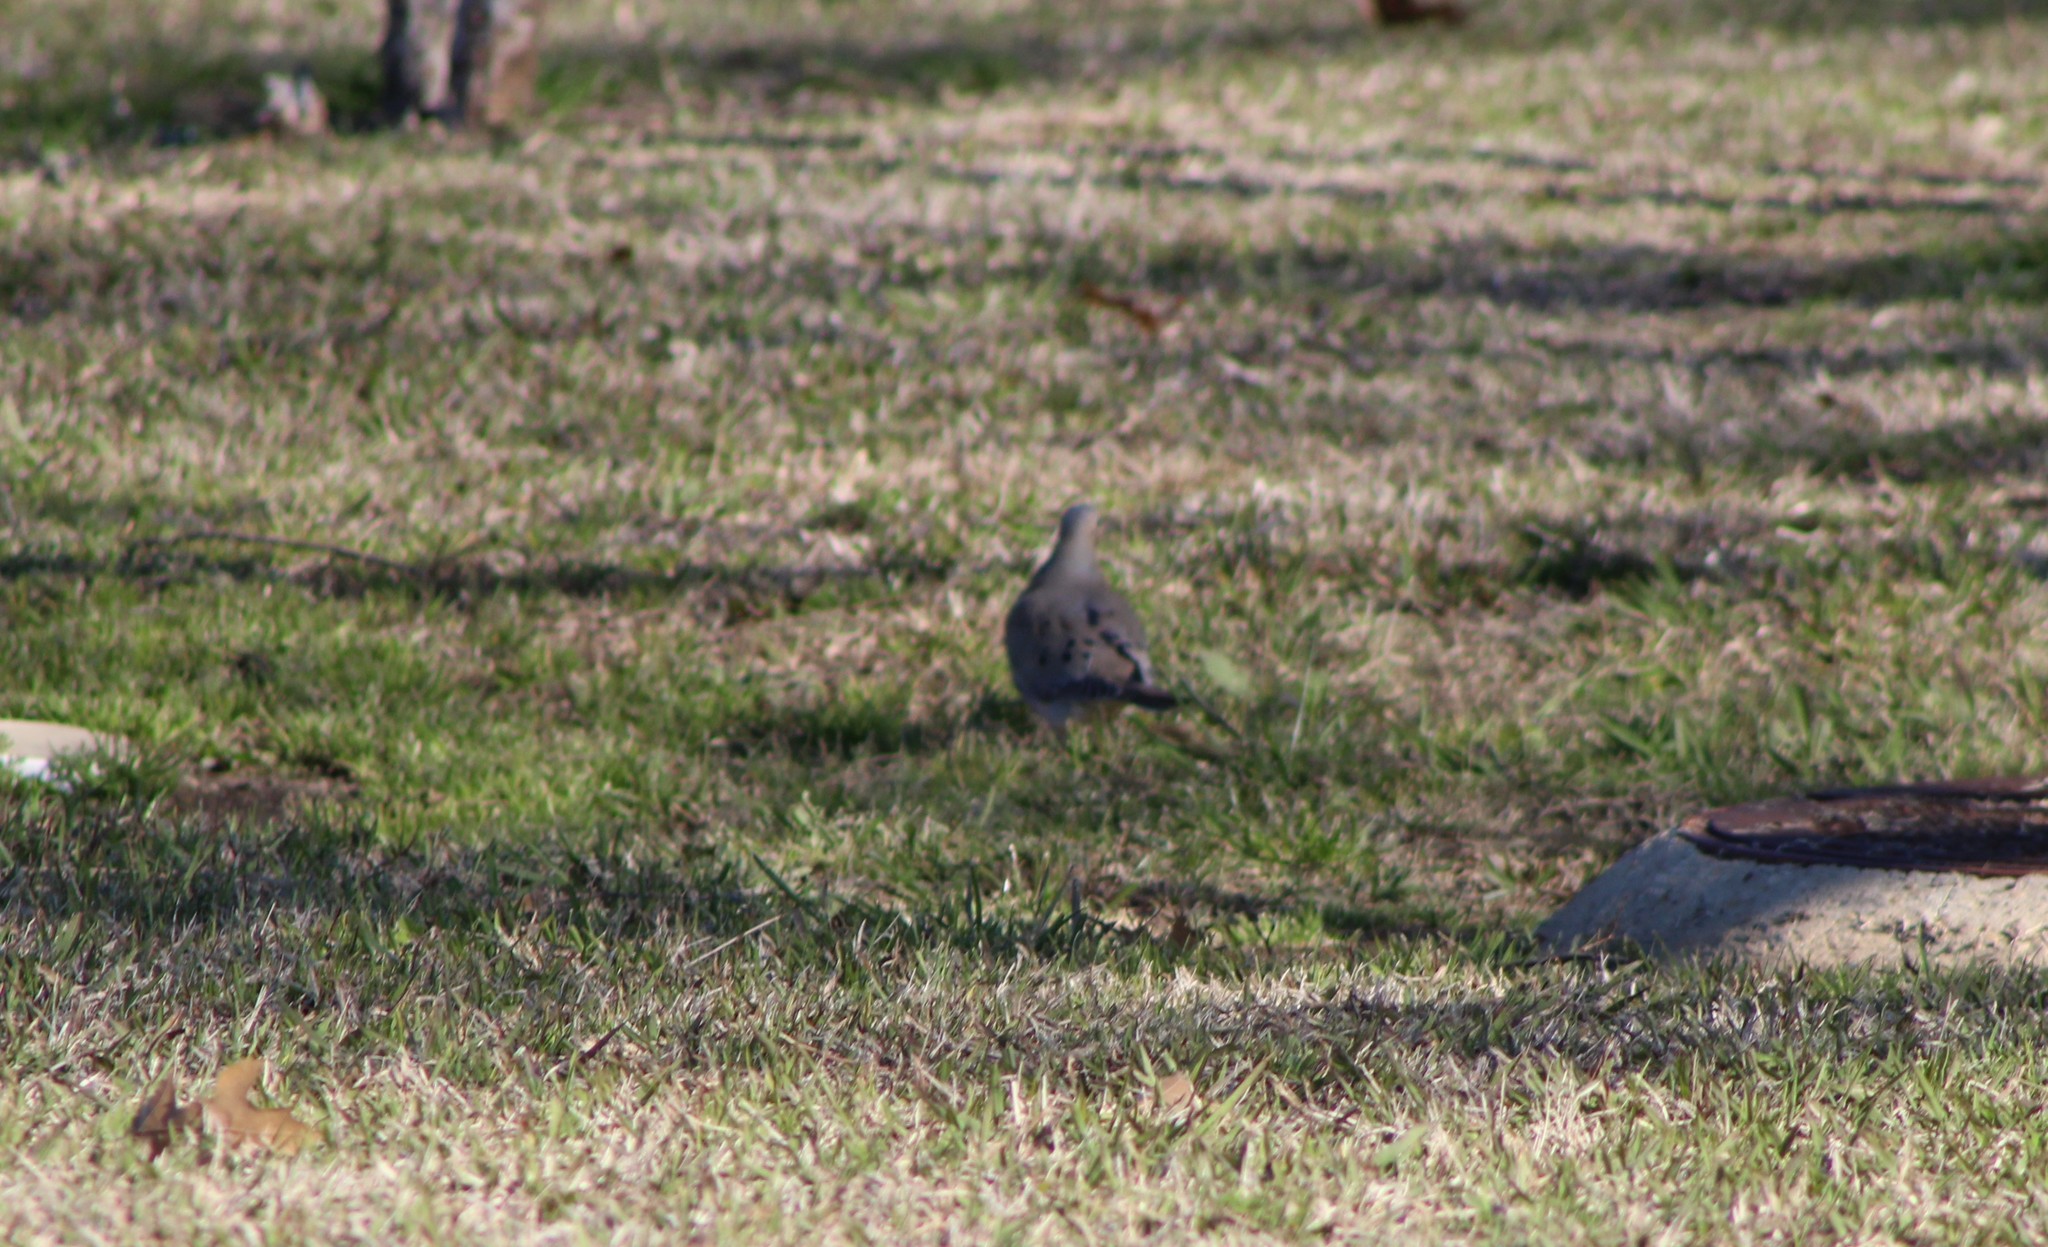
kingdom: Animalia
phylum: Chordata
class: Aves
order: Columbiformes
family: Columbidae
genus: Zenaida
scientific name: Zenaida macroura
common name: Mourning dove
